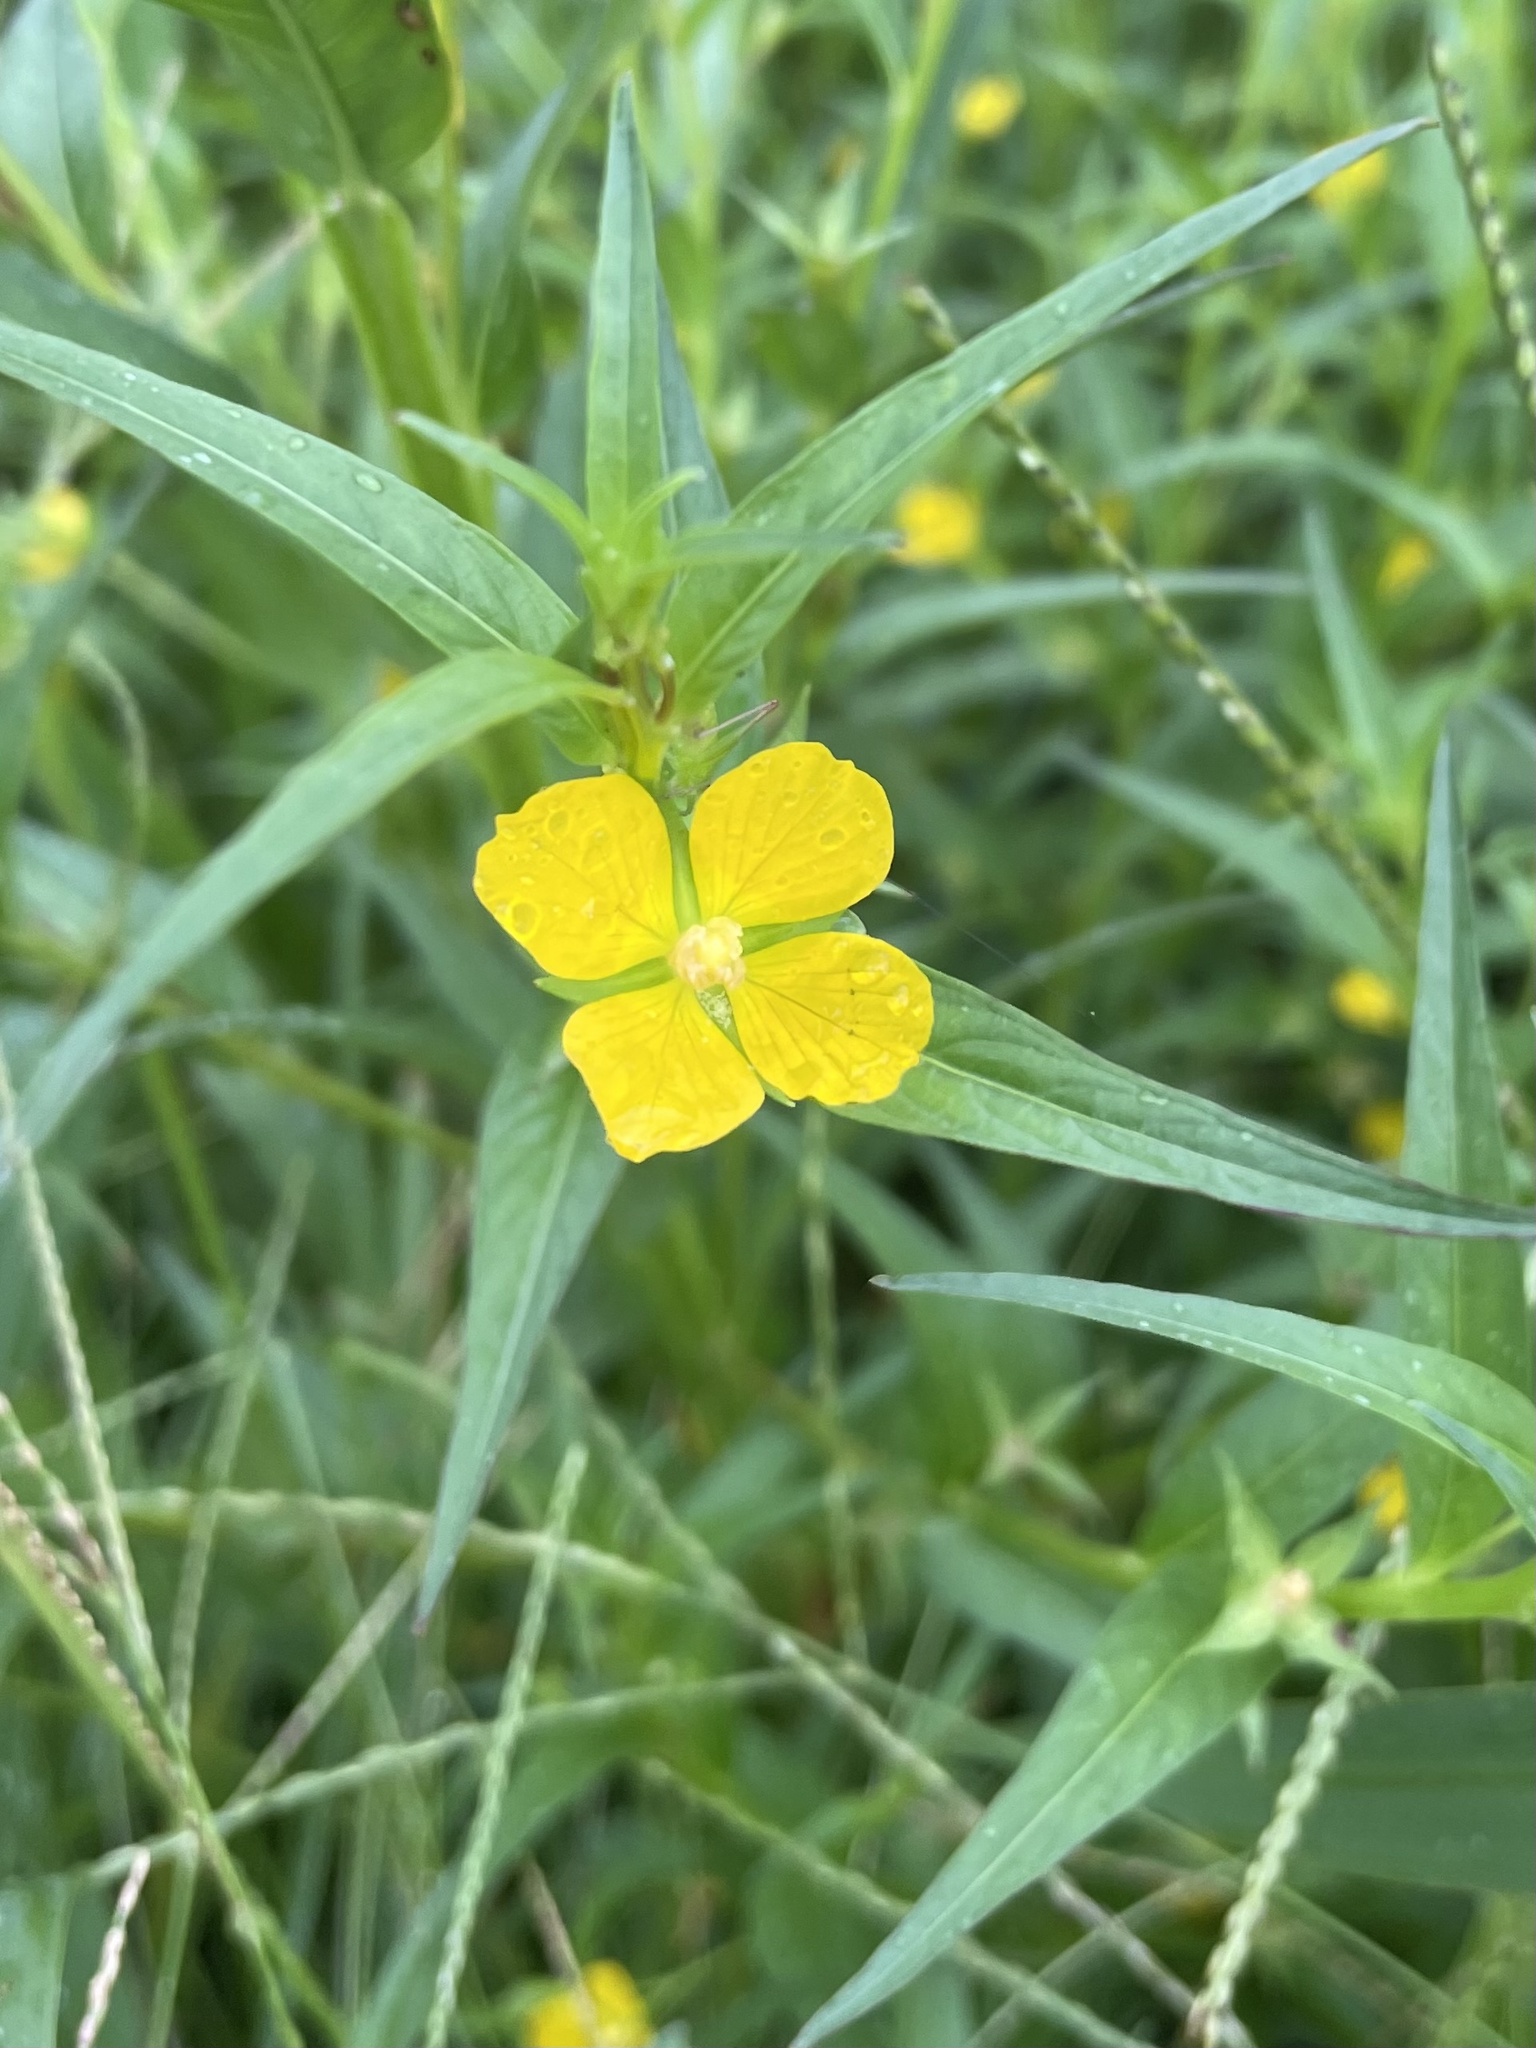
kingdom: Plantae
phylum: Tracheophyta
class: Magnoliopsida
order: Myrtales
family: Onagraceae
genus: Ludwigia
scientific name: Ludwigia decurrens
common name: Winged water-primrose
